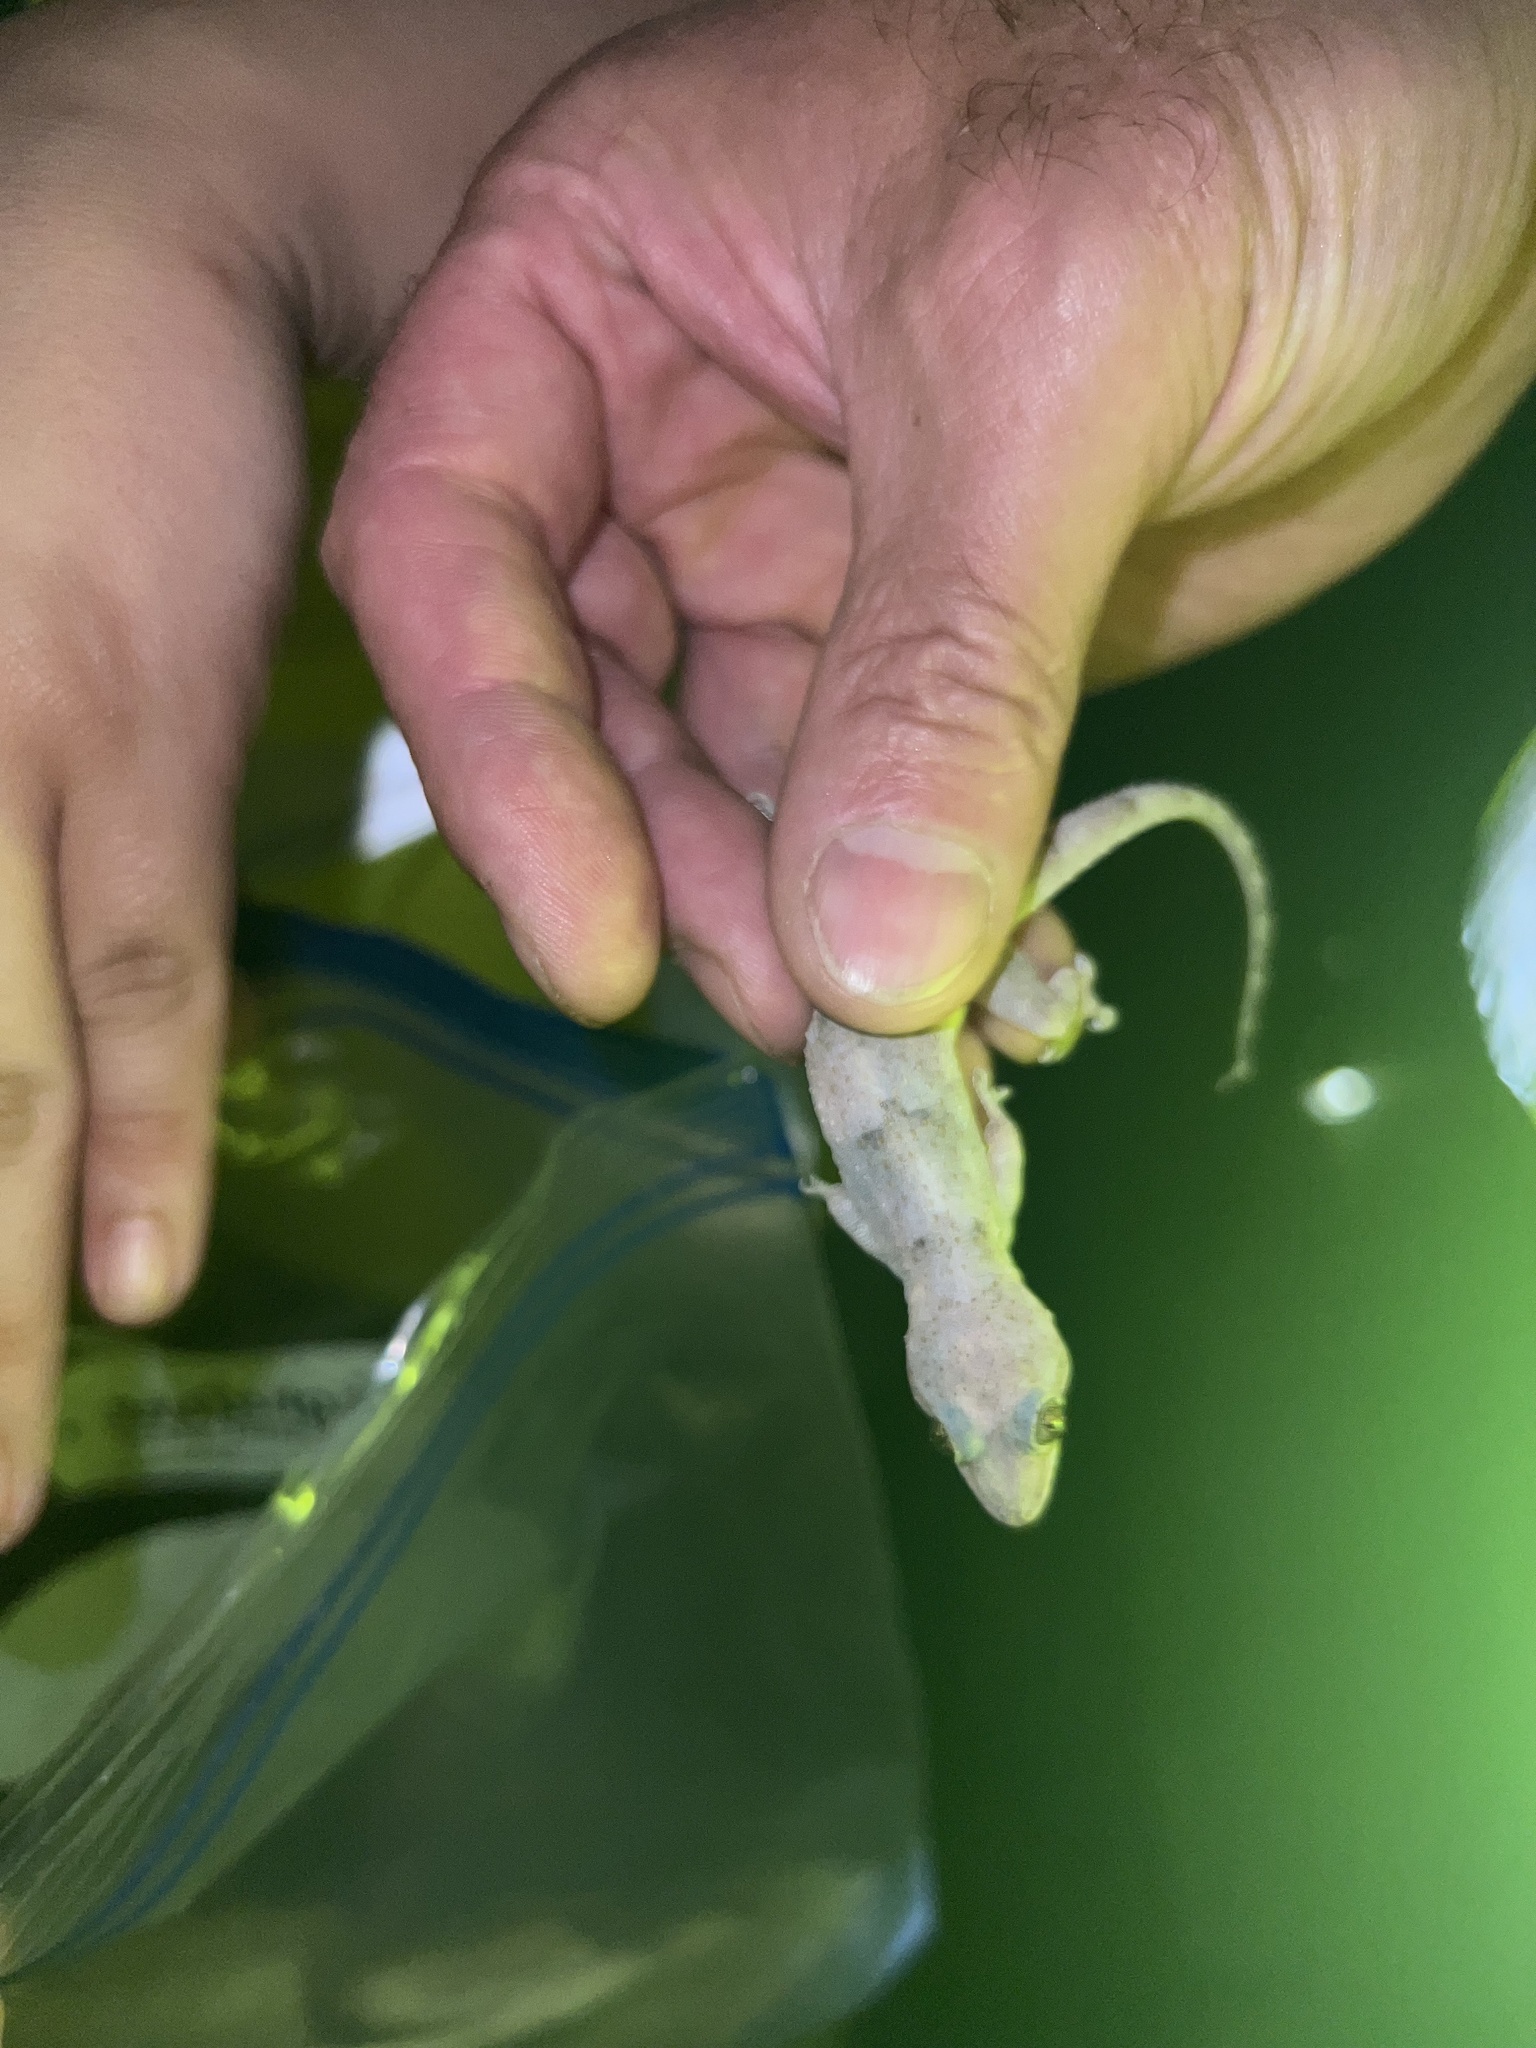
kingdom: Animalia
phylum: Chordata
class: Squamata
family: Gekkonidae
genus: Hemidactylus
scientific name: Hemidactylus mabouia
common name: House gecko
